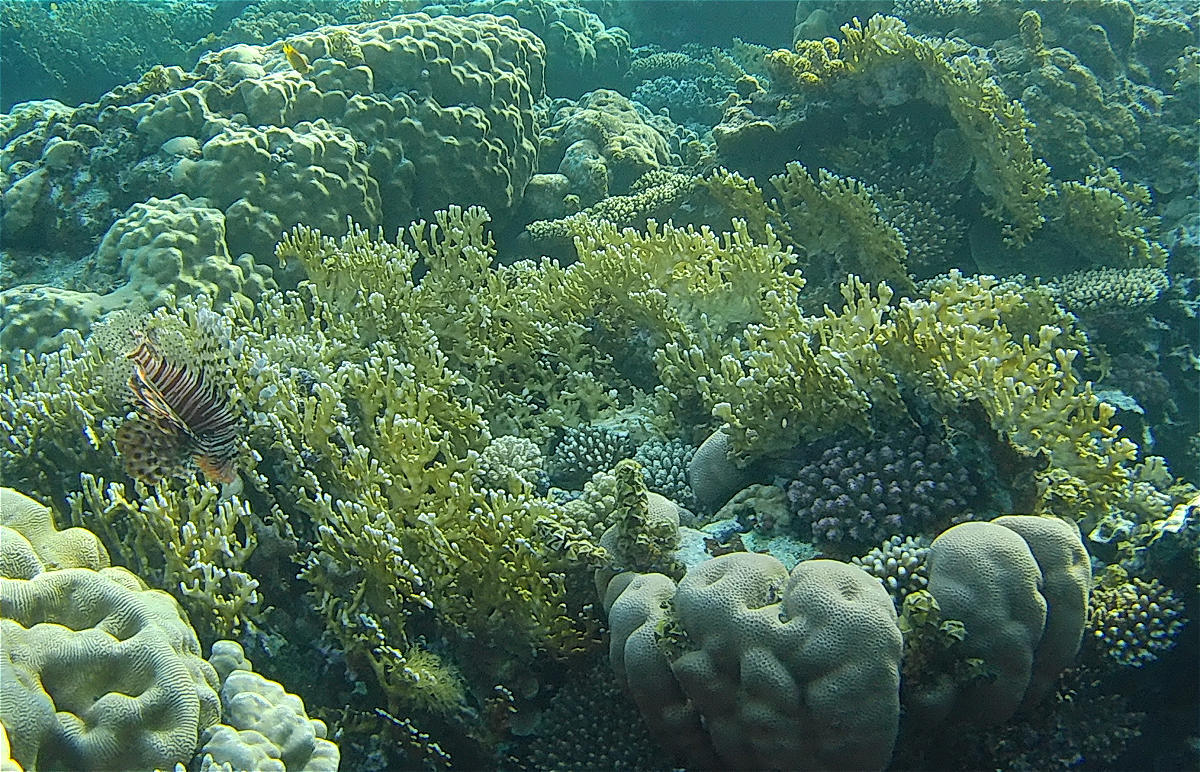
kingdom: Animalia
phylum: Cnidaria
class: Hydrozoa
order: Anthoathecata
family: Milleporidae
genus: Millepora
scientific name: Millepora dichotoma
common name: Ramified fire coral
